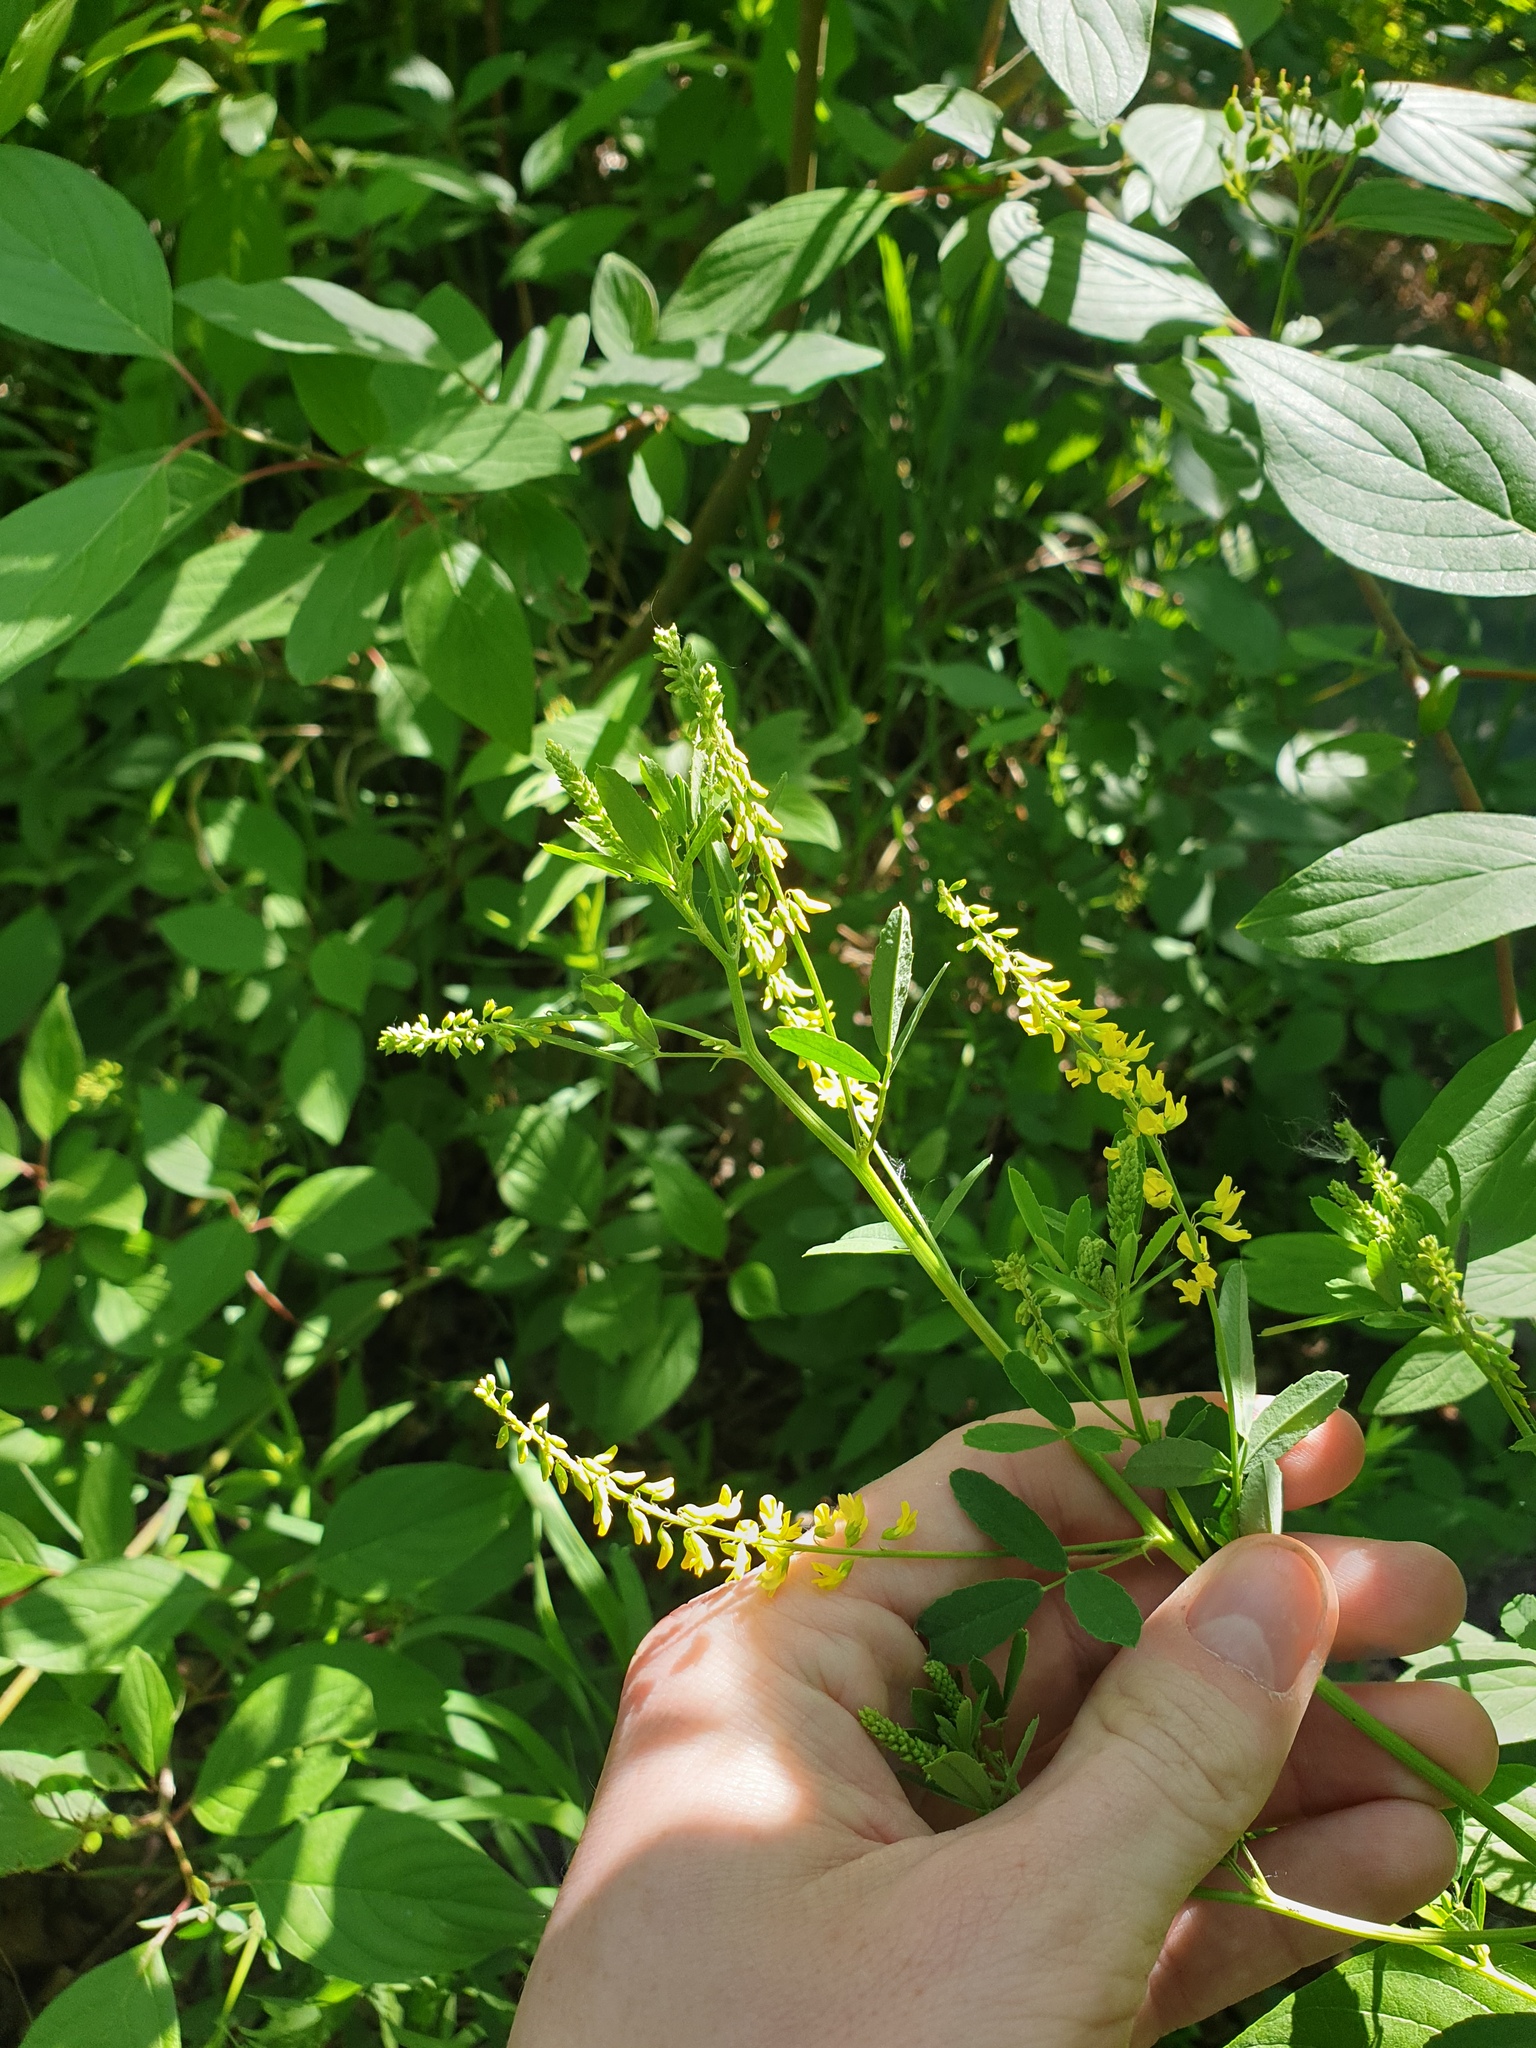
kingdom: Plantae
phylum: Tracheophyta
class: Magnoliopsida
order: Fabales
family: Fabaceae
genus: Melilotus
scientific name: Melilotus officinalis
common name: Sweetclover
